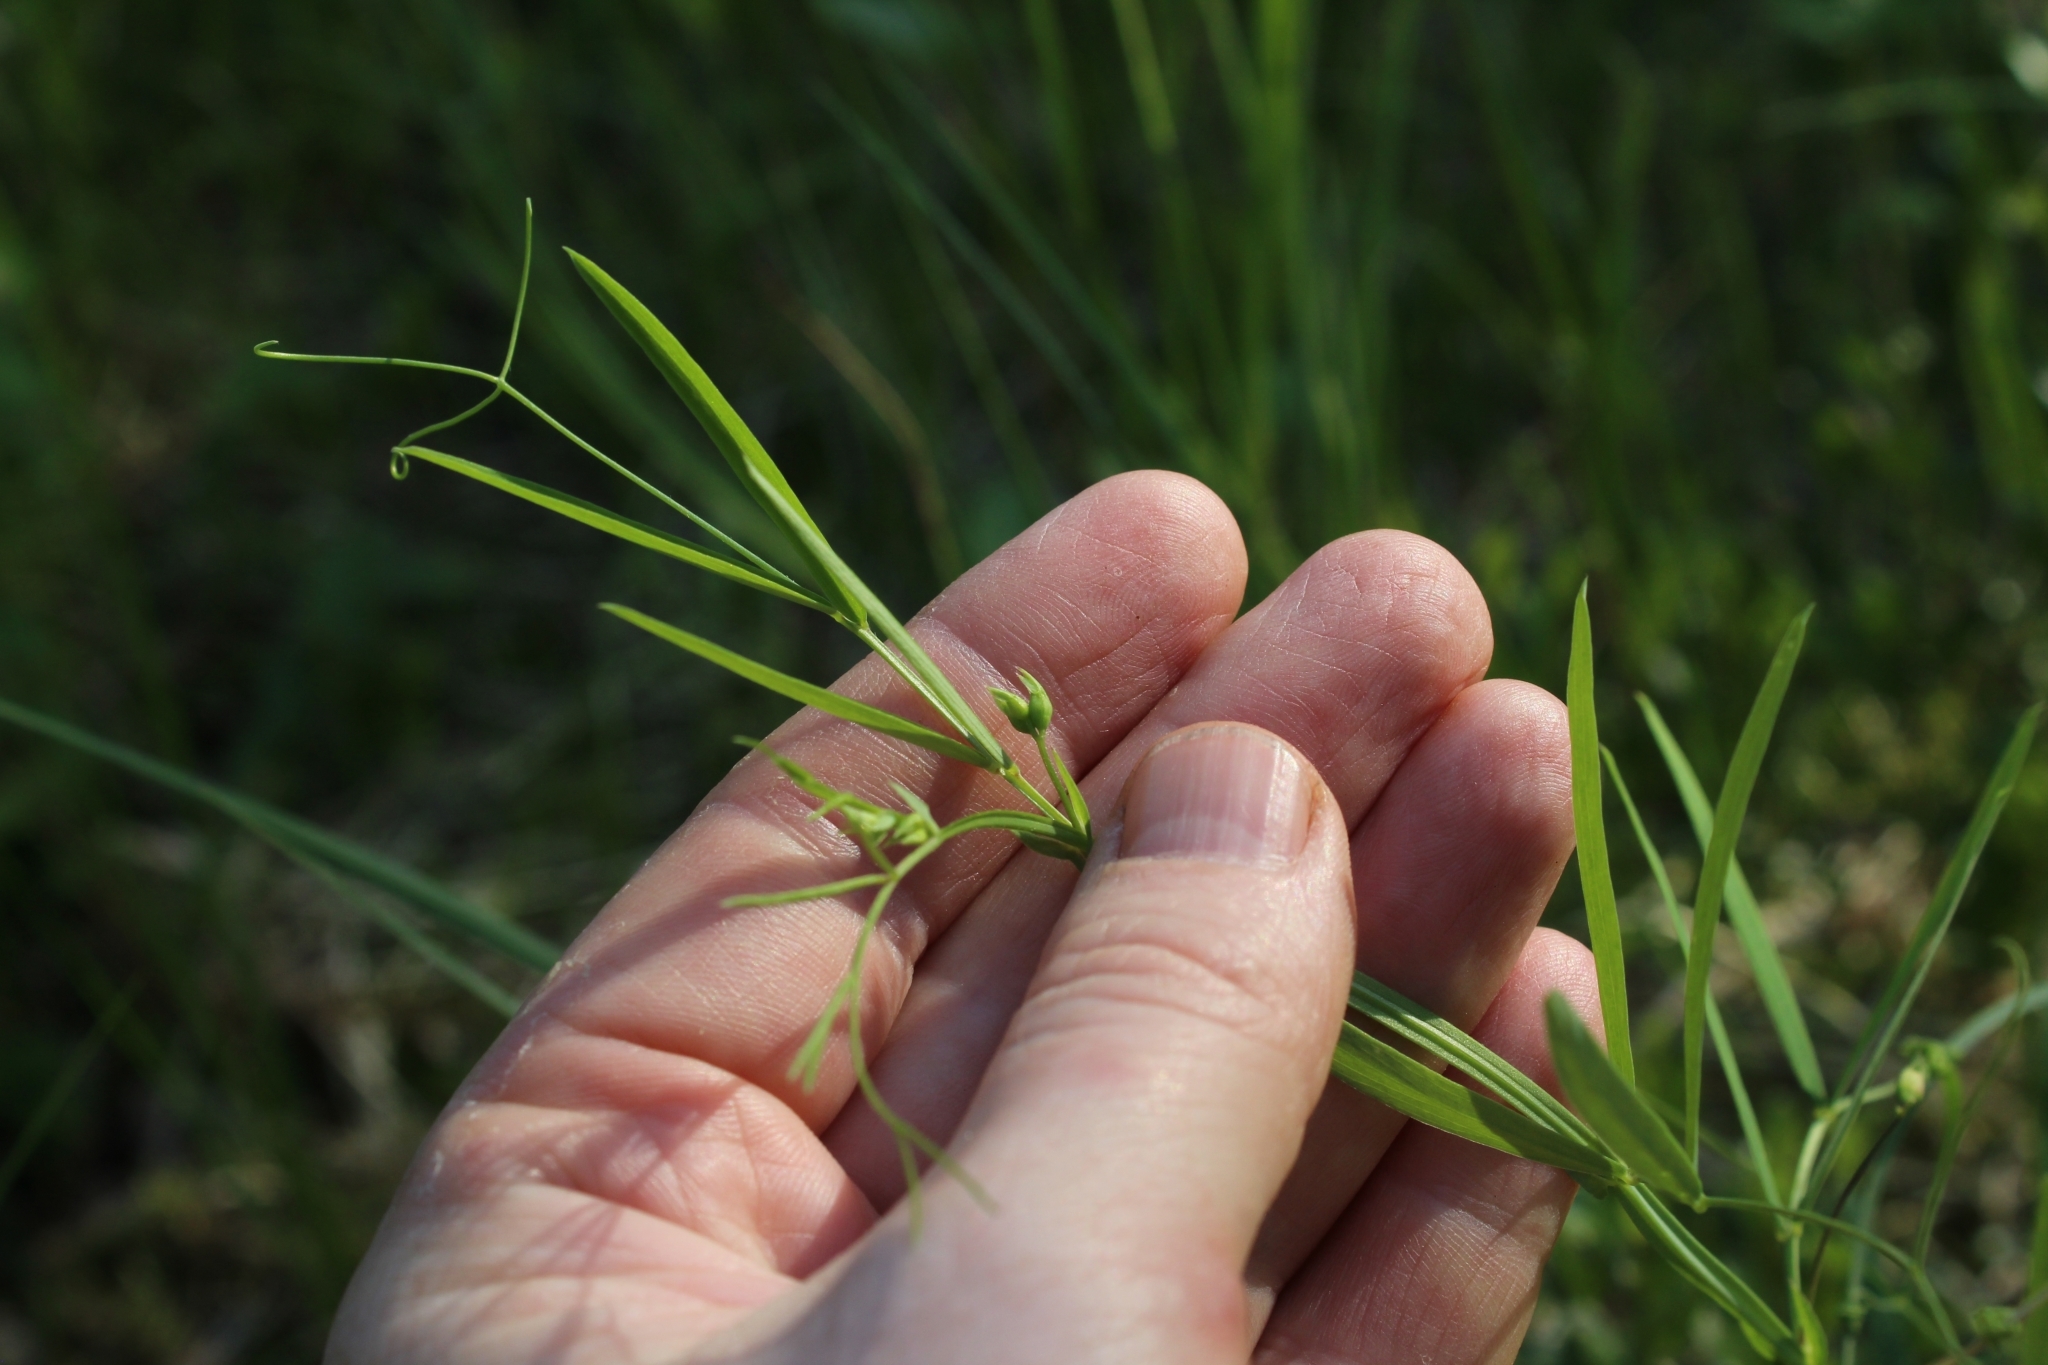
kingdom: Plantae
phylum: Tracheophyta
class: Magnoliopsida
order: Fabales
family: Fabaceae
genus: Lathyrus
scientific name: Lathyrus palustris
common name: Marsh pea
